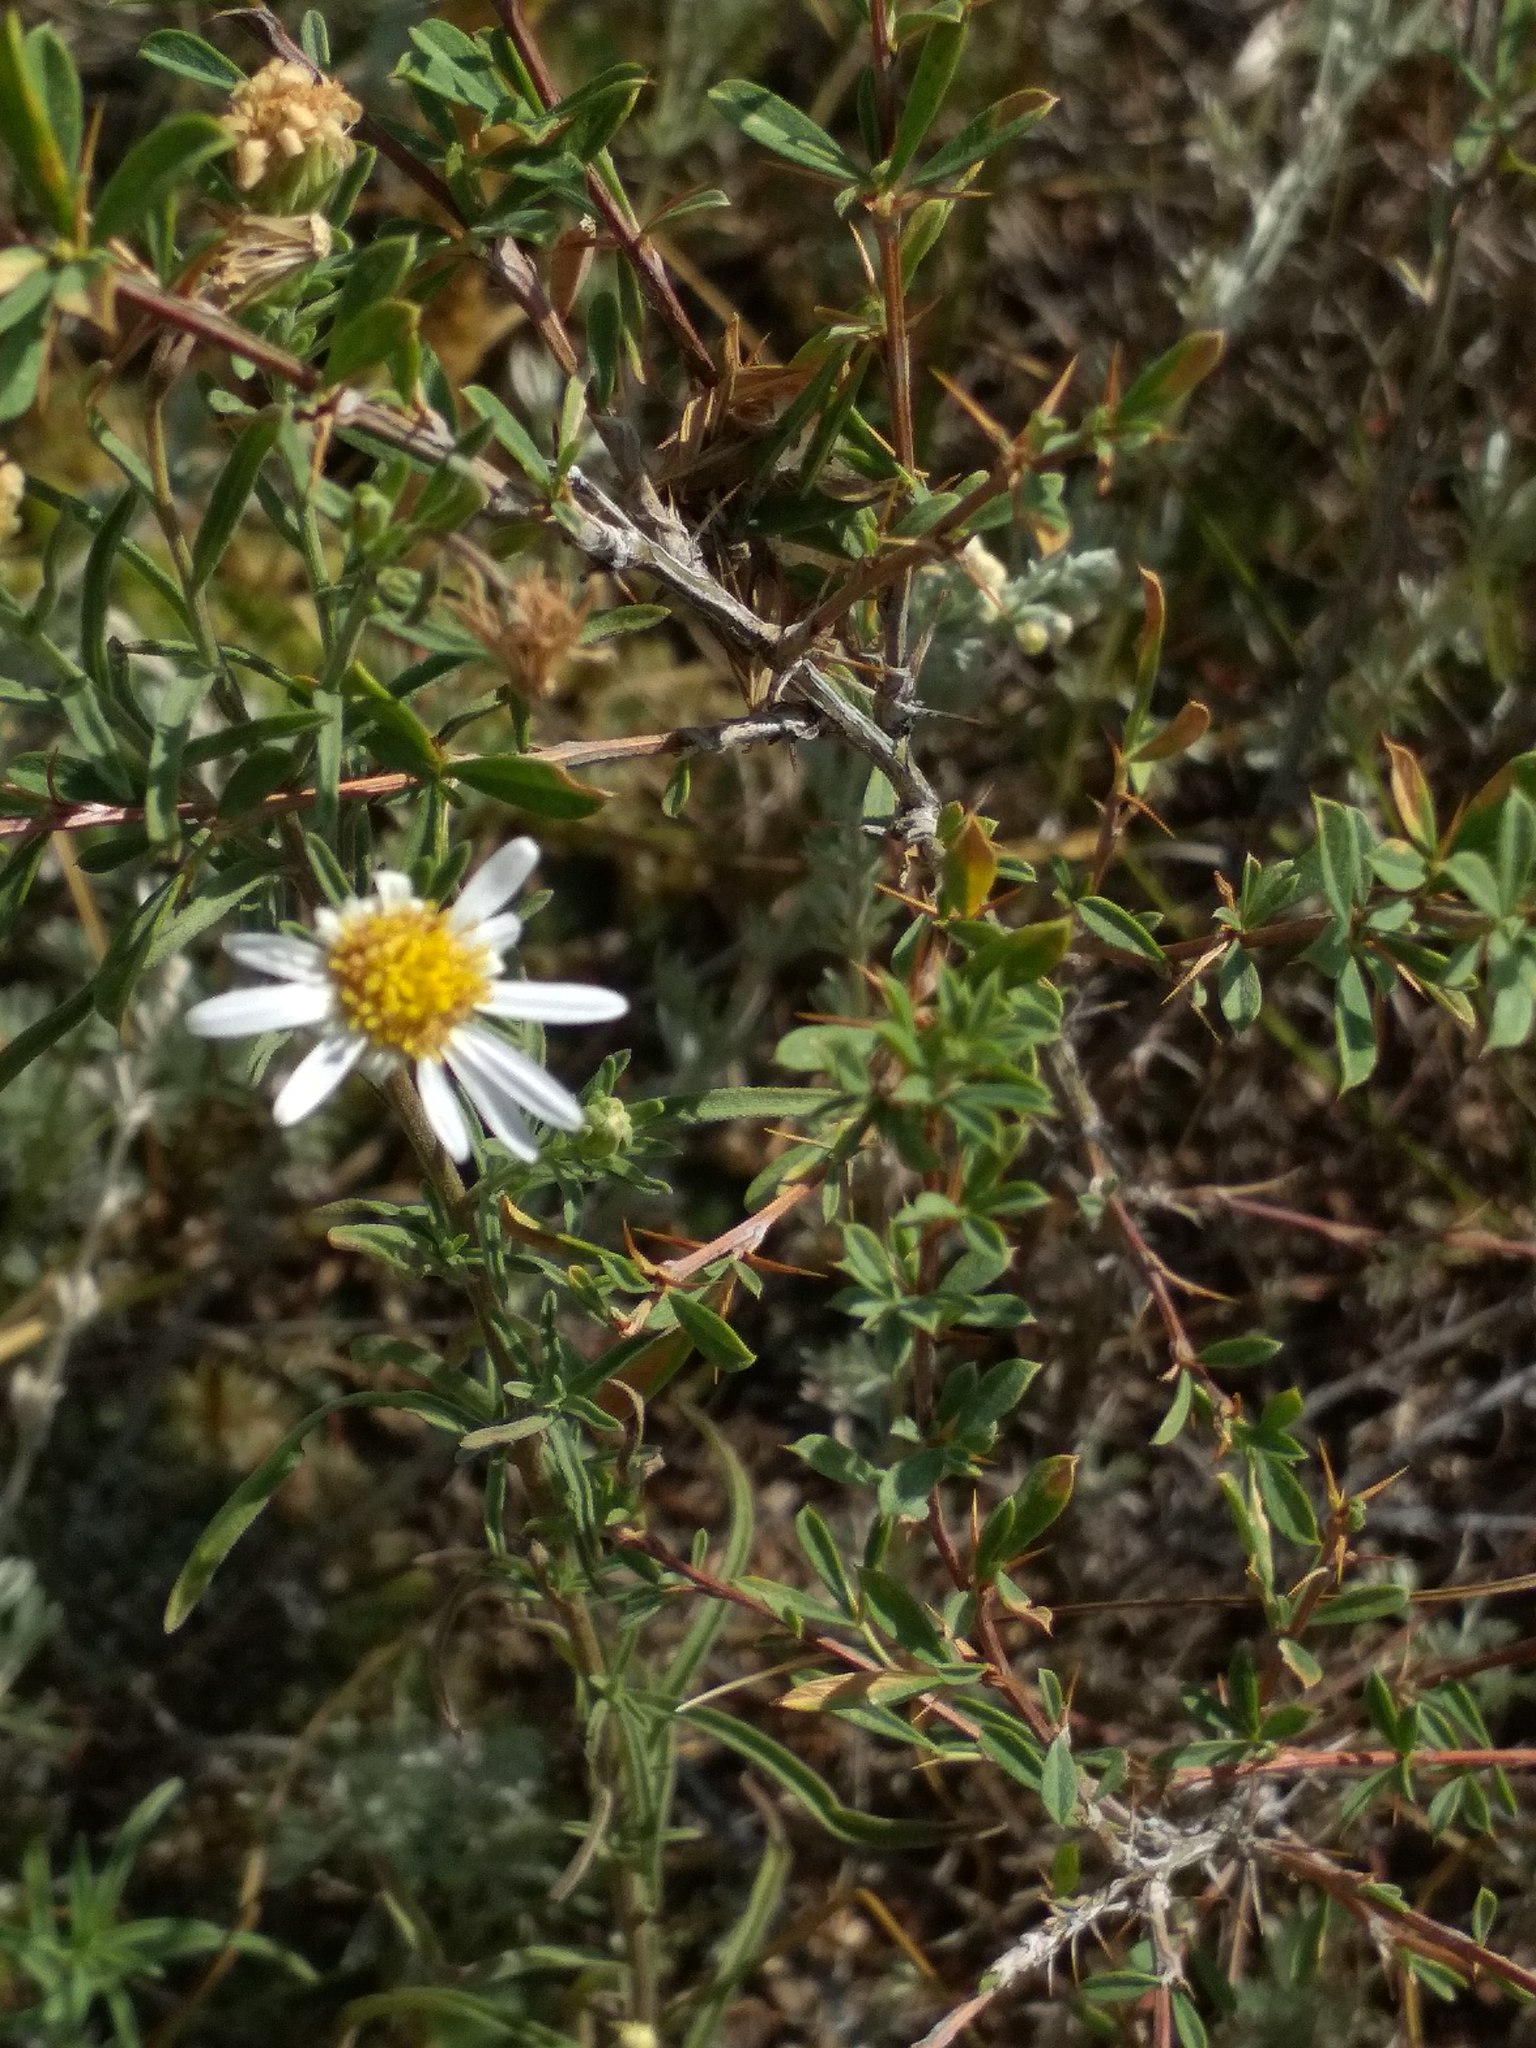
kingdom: Plantae
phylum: Tracheophyta
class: Magnoliopsida
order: Asterales
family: Asteraceae
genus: Heteropappus
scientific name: Heteropappus altaicus
